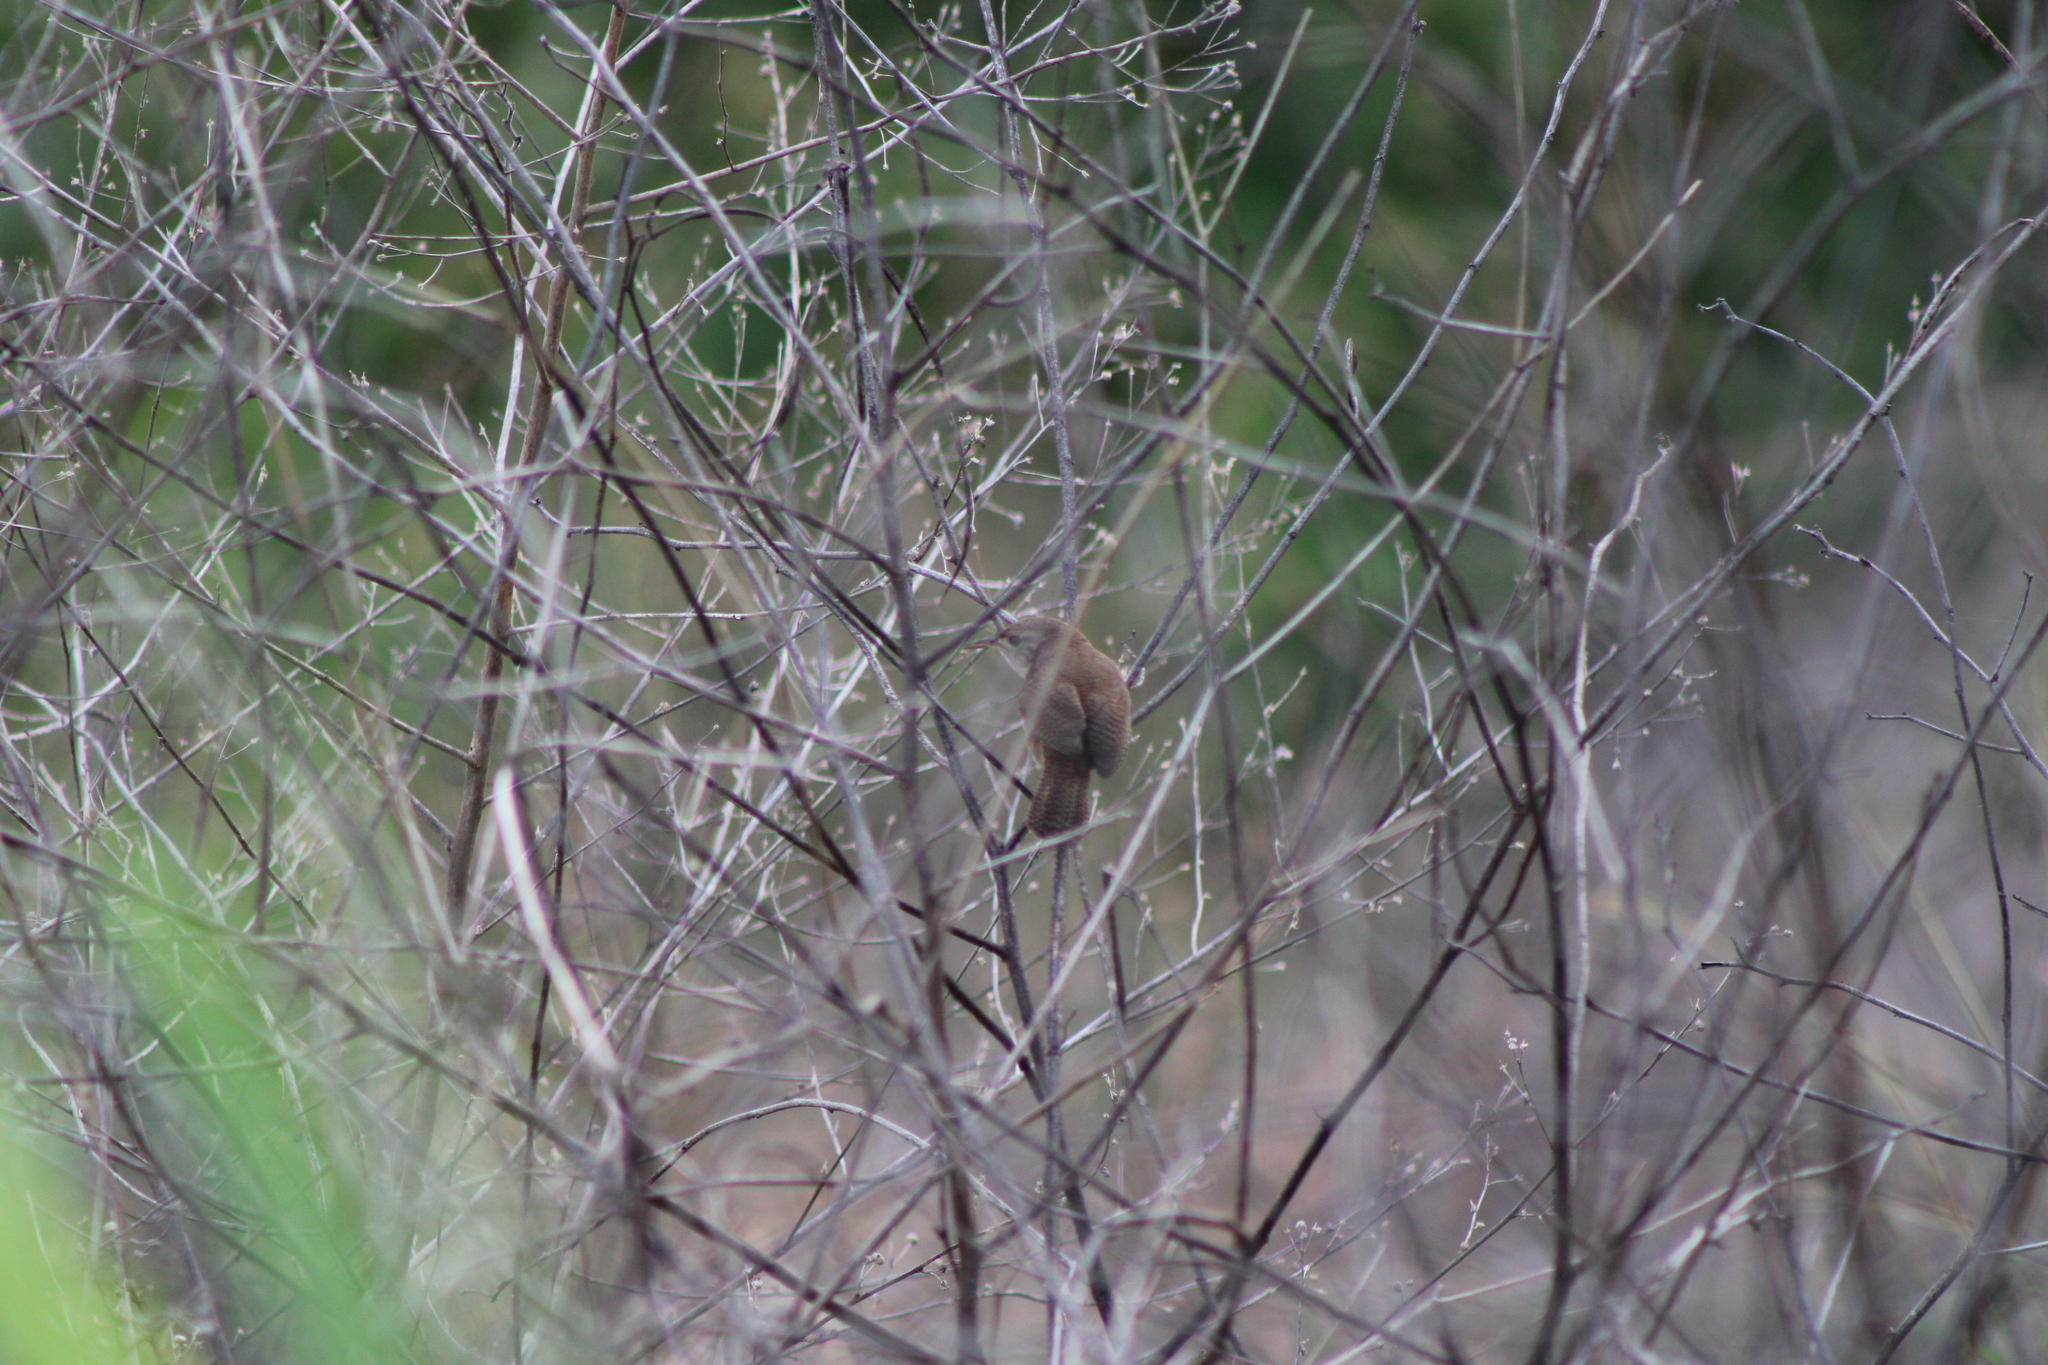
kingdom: Animalia
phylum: Chordata
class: Aves
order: Passeriformes
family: Troglodytidae
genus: Troglodytes
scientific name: Troglodytes aedon
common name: House wren
